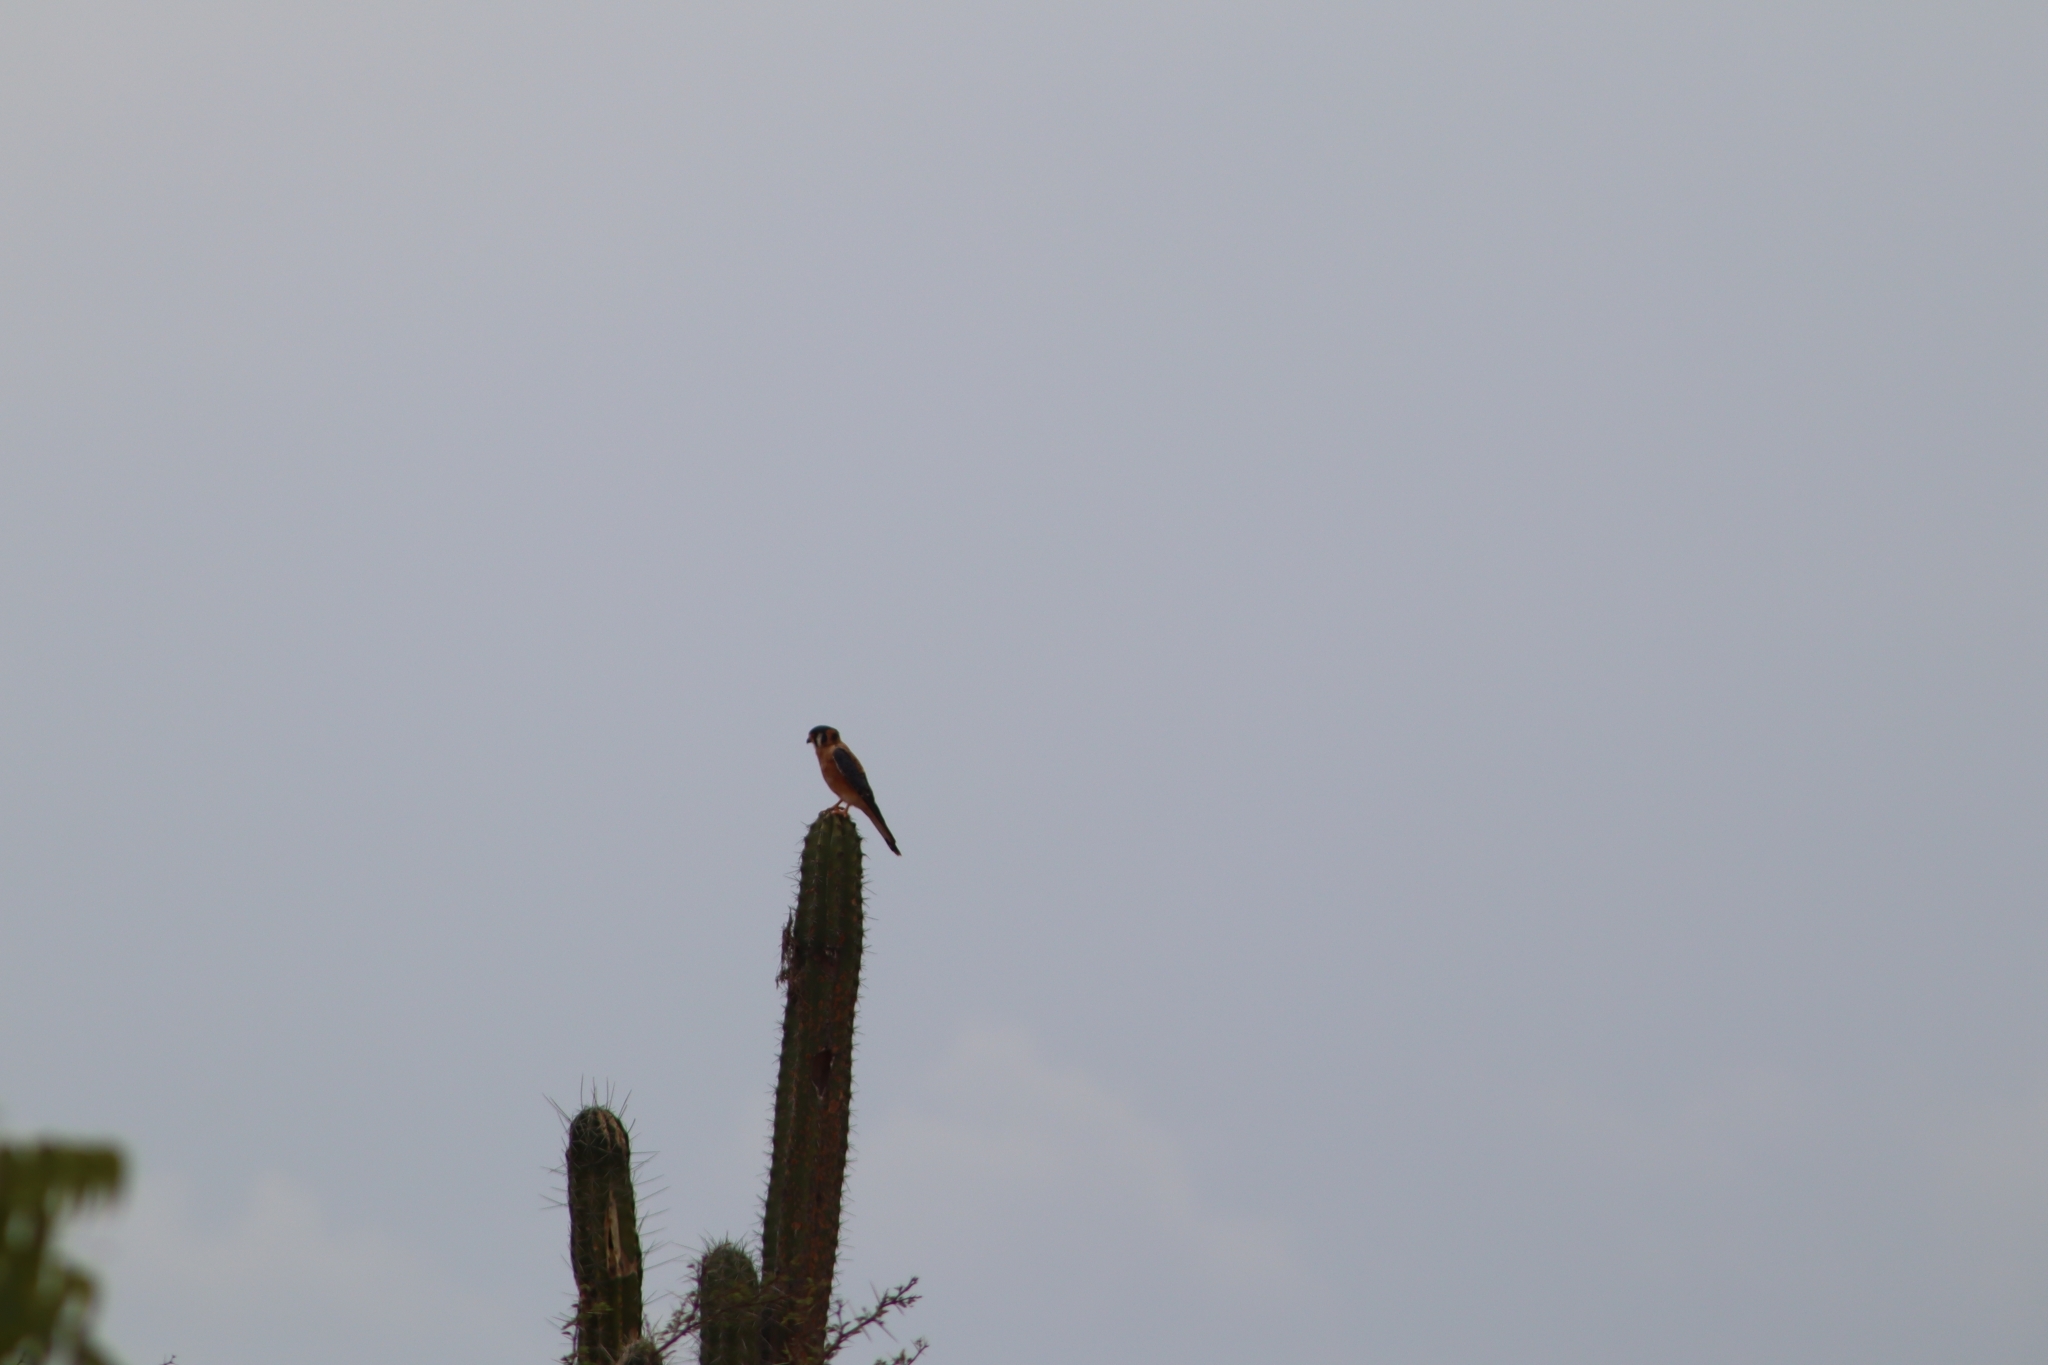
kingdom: Animalia
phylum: Chordata
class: Aves
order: Falconiformes
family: Falconidae
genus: Falco
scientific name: Falco sparverius
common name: American kestrel
